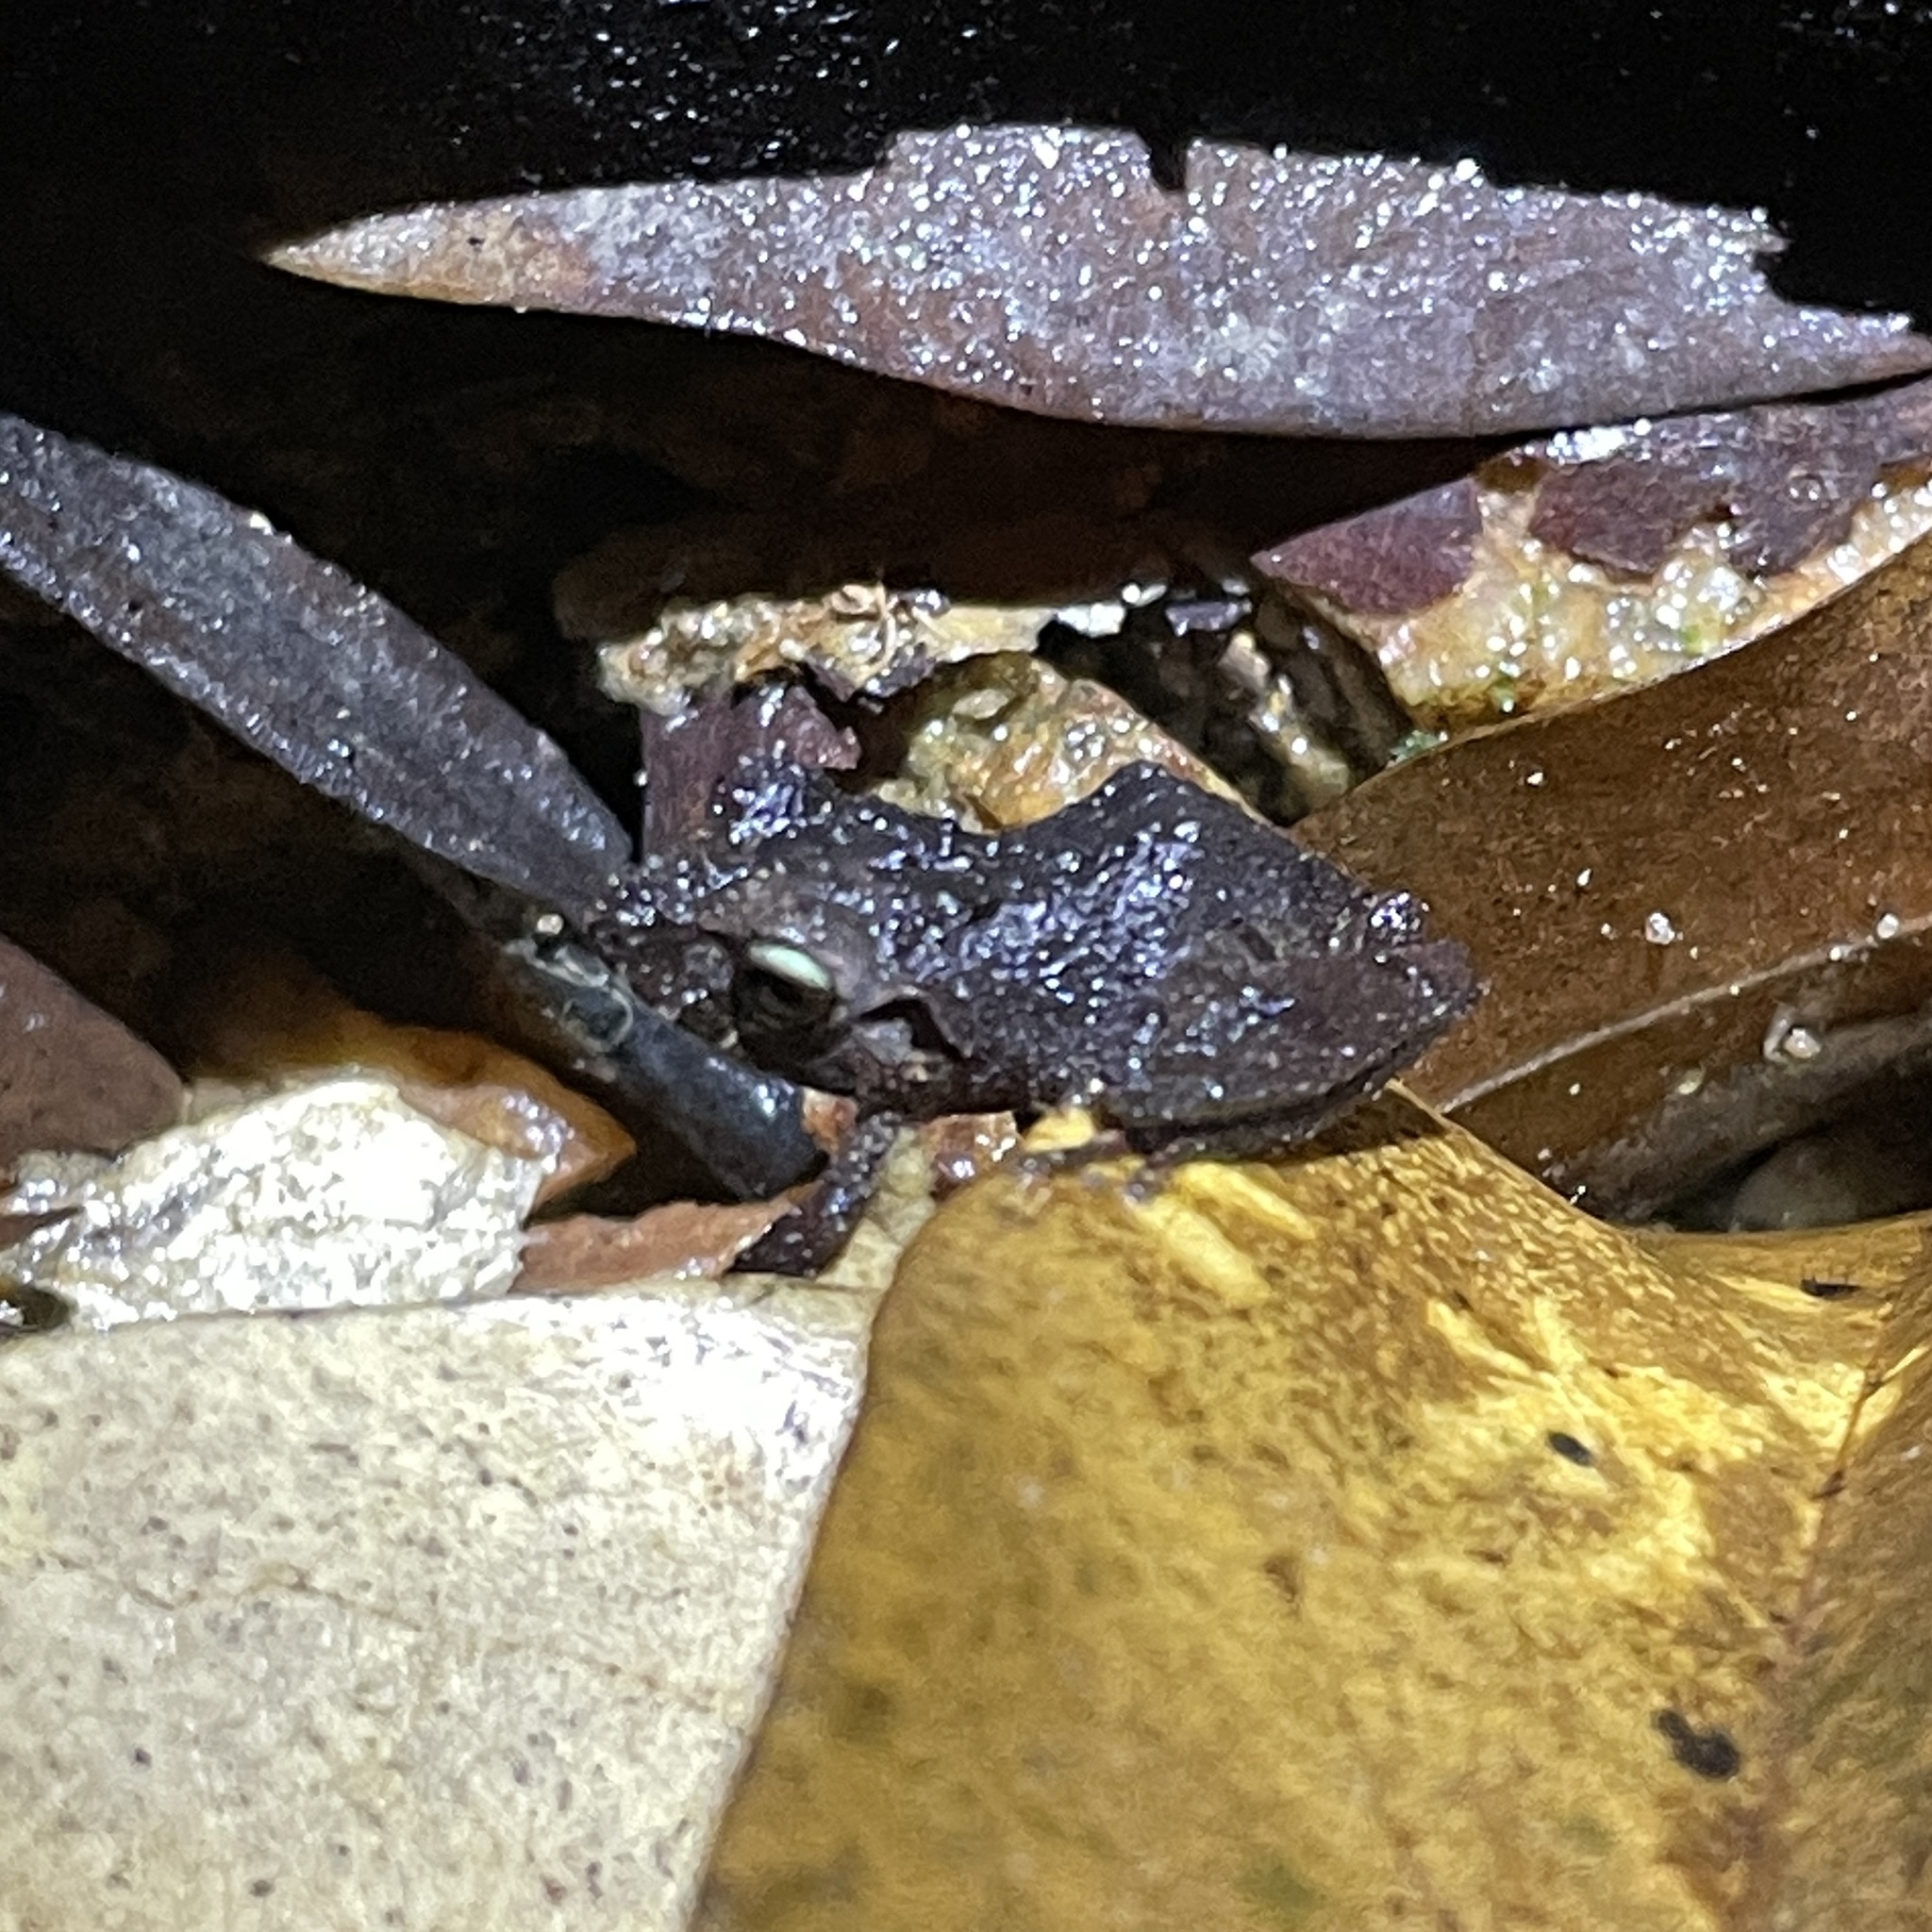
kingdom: Animalia
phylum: Chordata
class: Amphibia
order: Anura
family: Craugastoridae
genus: Pristimantis
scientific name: Pristimantis urichi
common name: Lesser antilles robber frog
